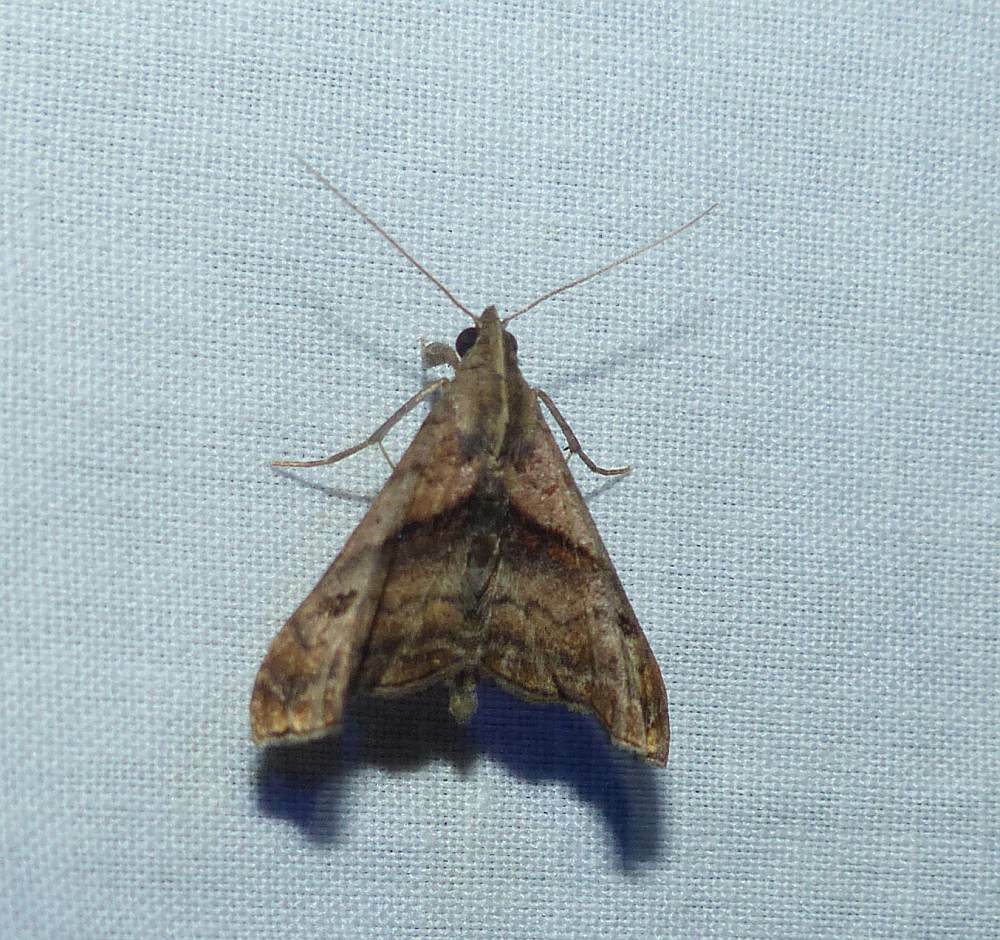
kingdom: Animalia
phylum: Arthropoda
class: Insecta
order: Lepidoptera
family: Erebidae
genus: Palthis
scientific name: Palthis angulalis
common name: Dark-spotted palthis moth
